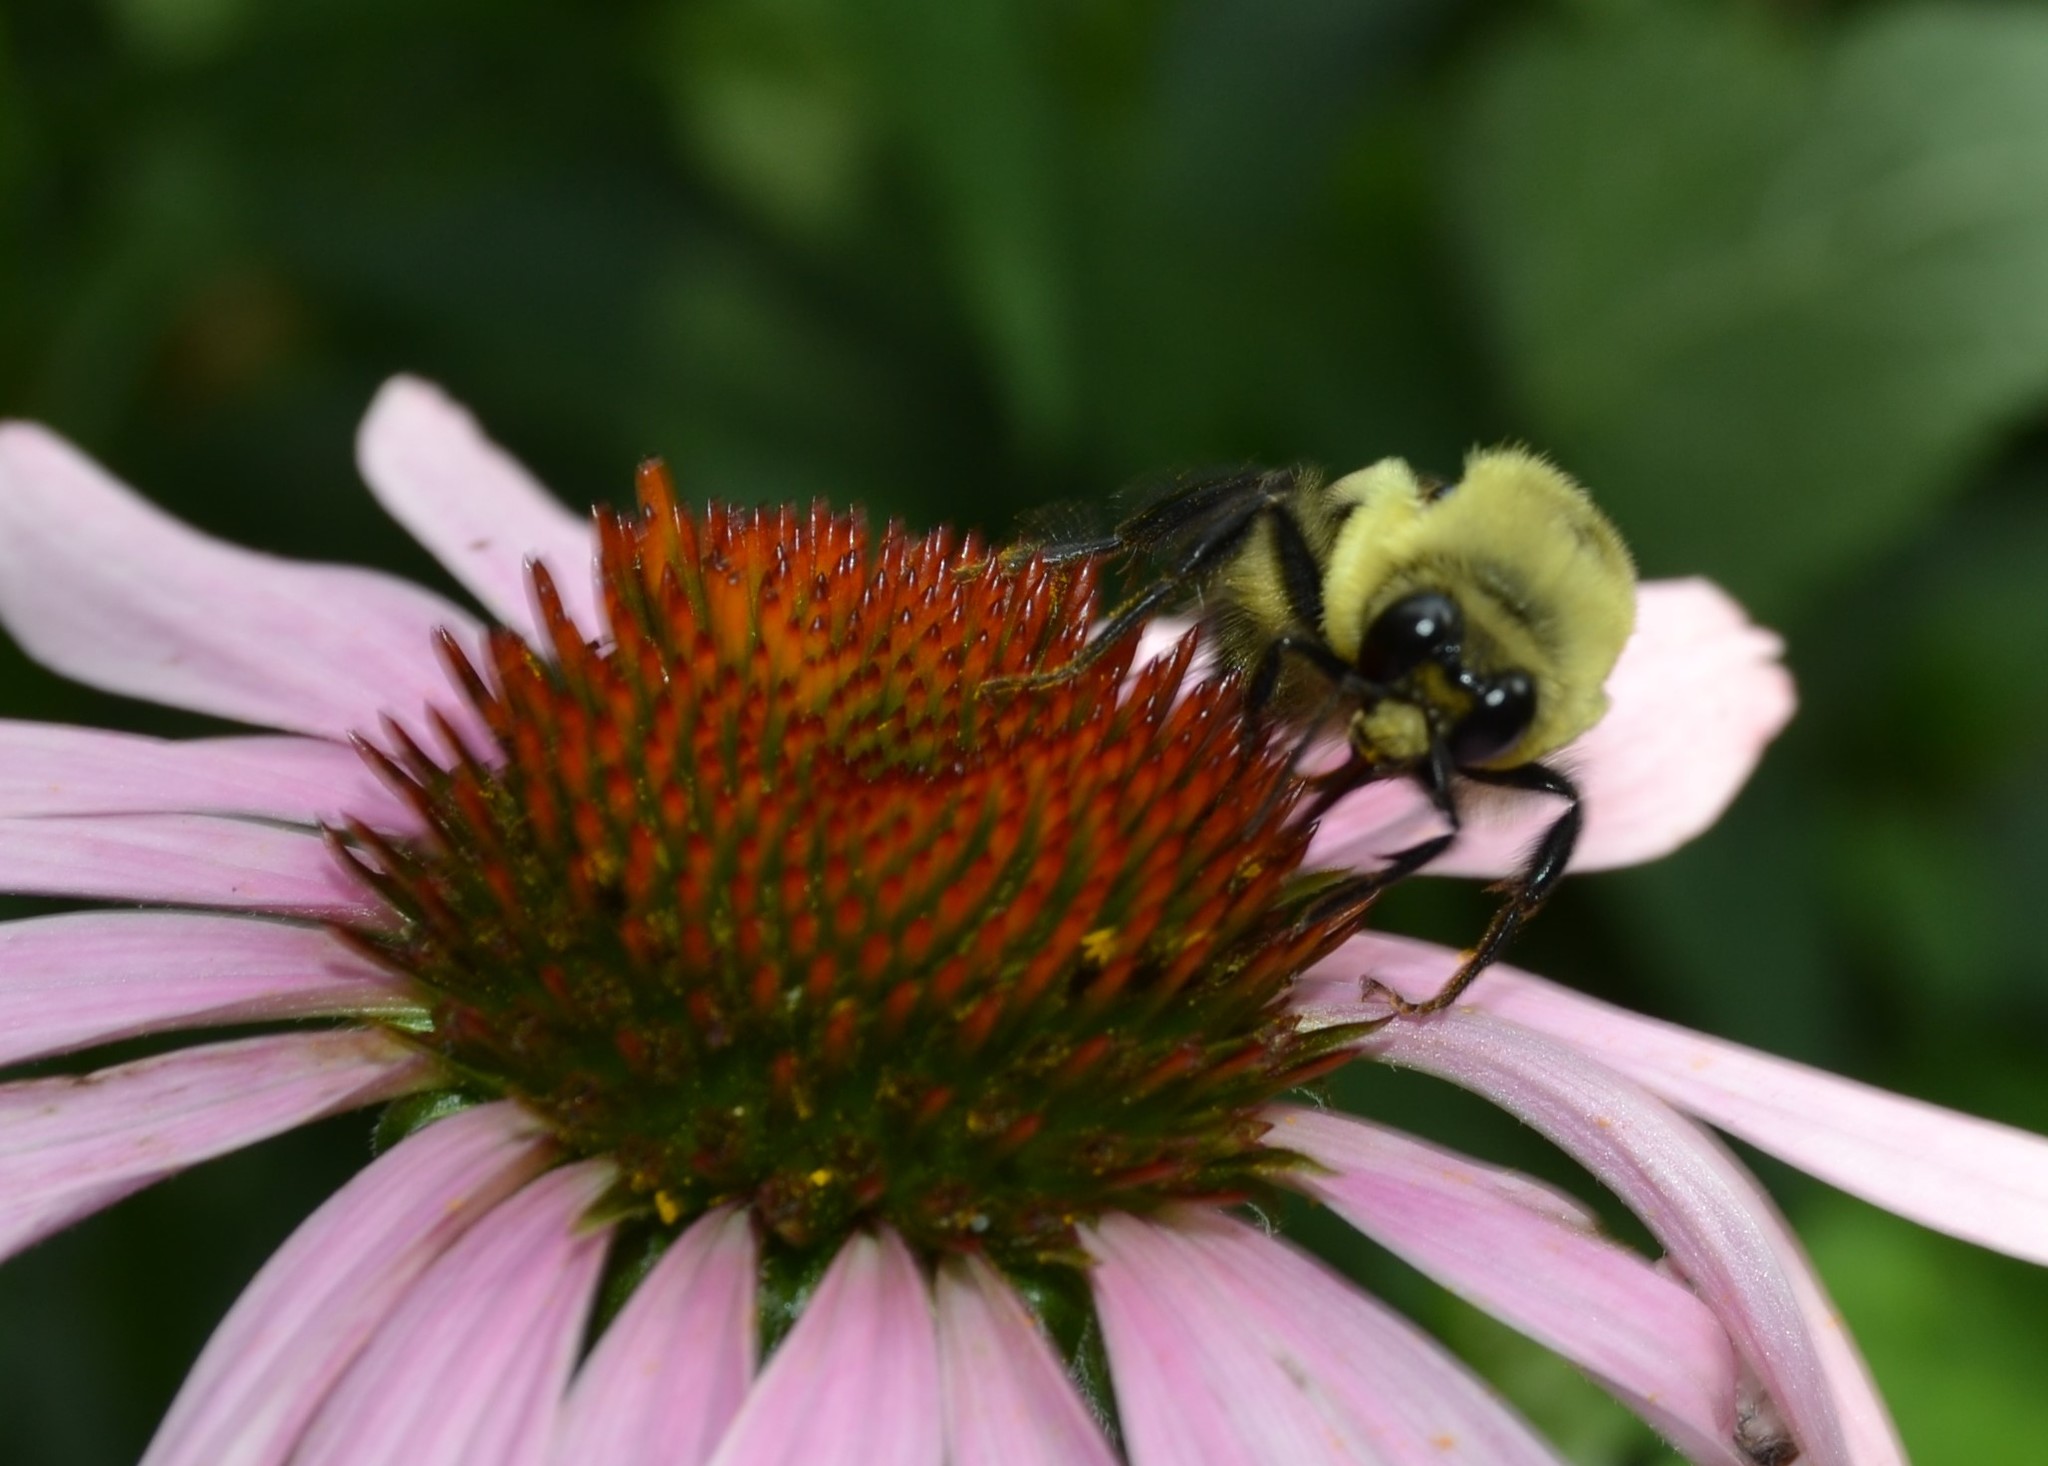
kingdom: Animalia
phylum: Arthropoda
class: Insecta
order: Hymenoptera
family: Apidae
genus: Bombus
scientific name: Bombus griseocollis
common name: Brown-belted bumble bee
